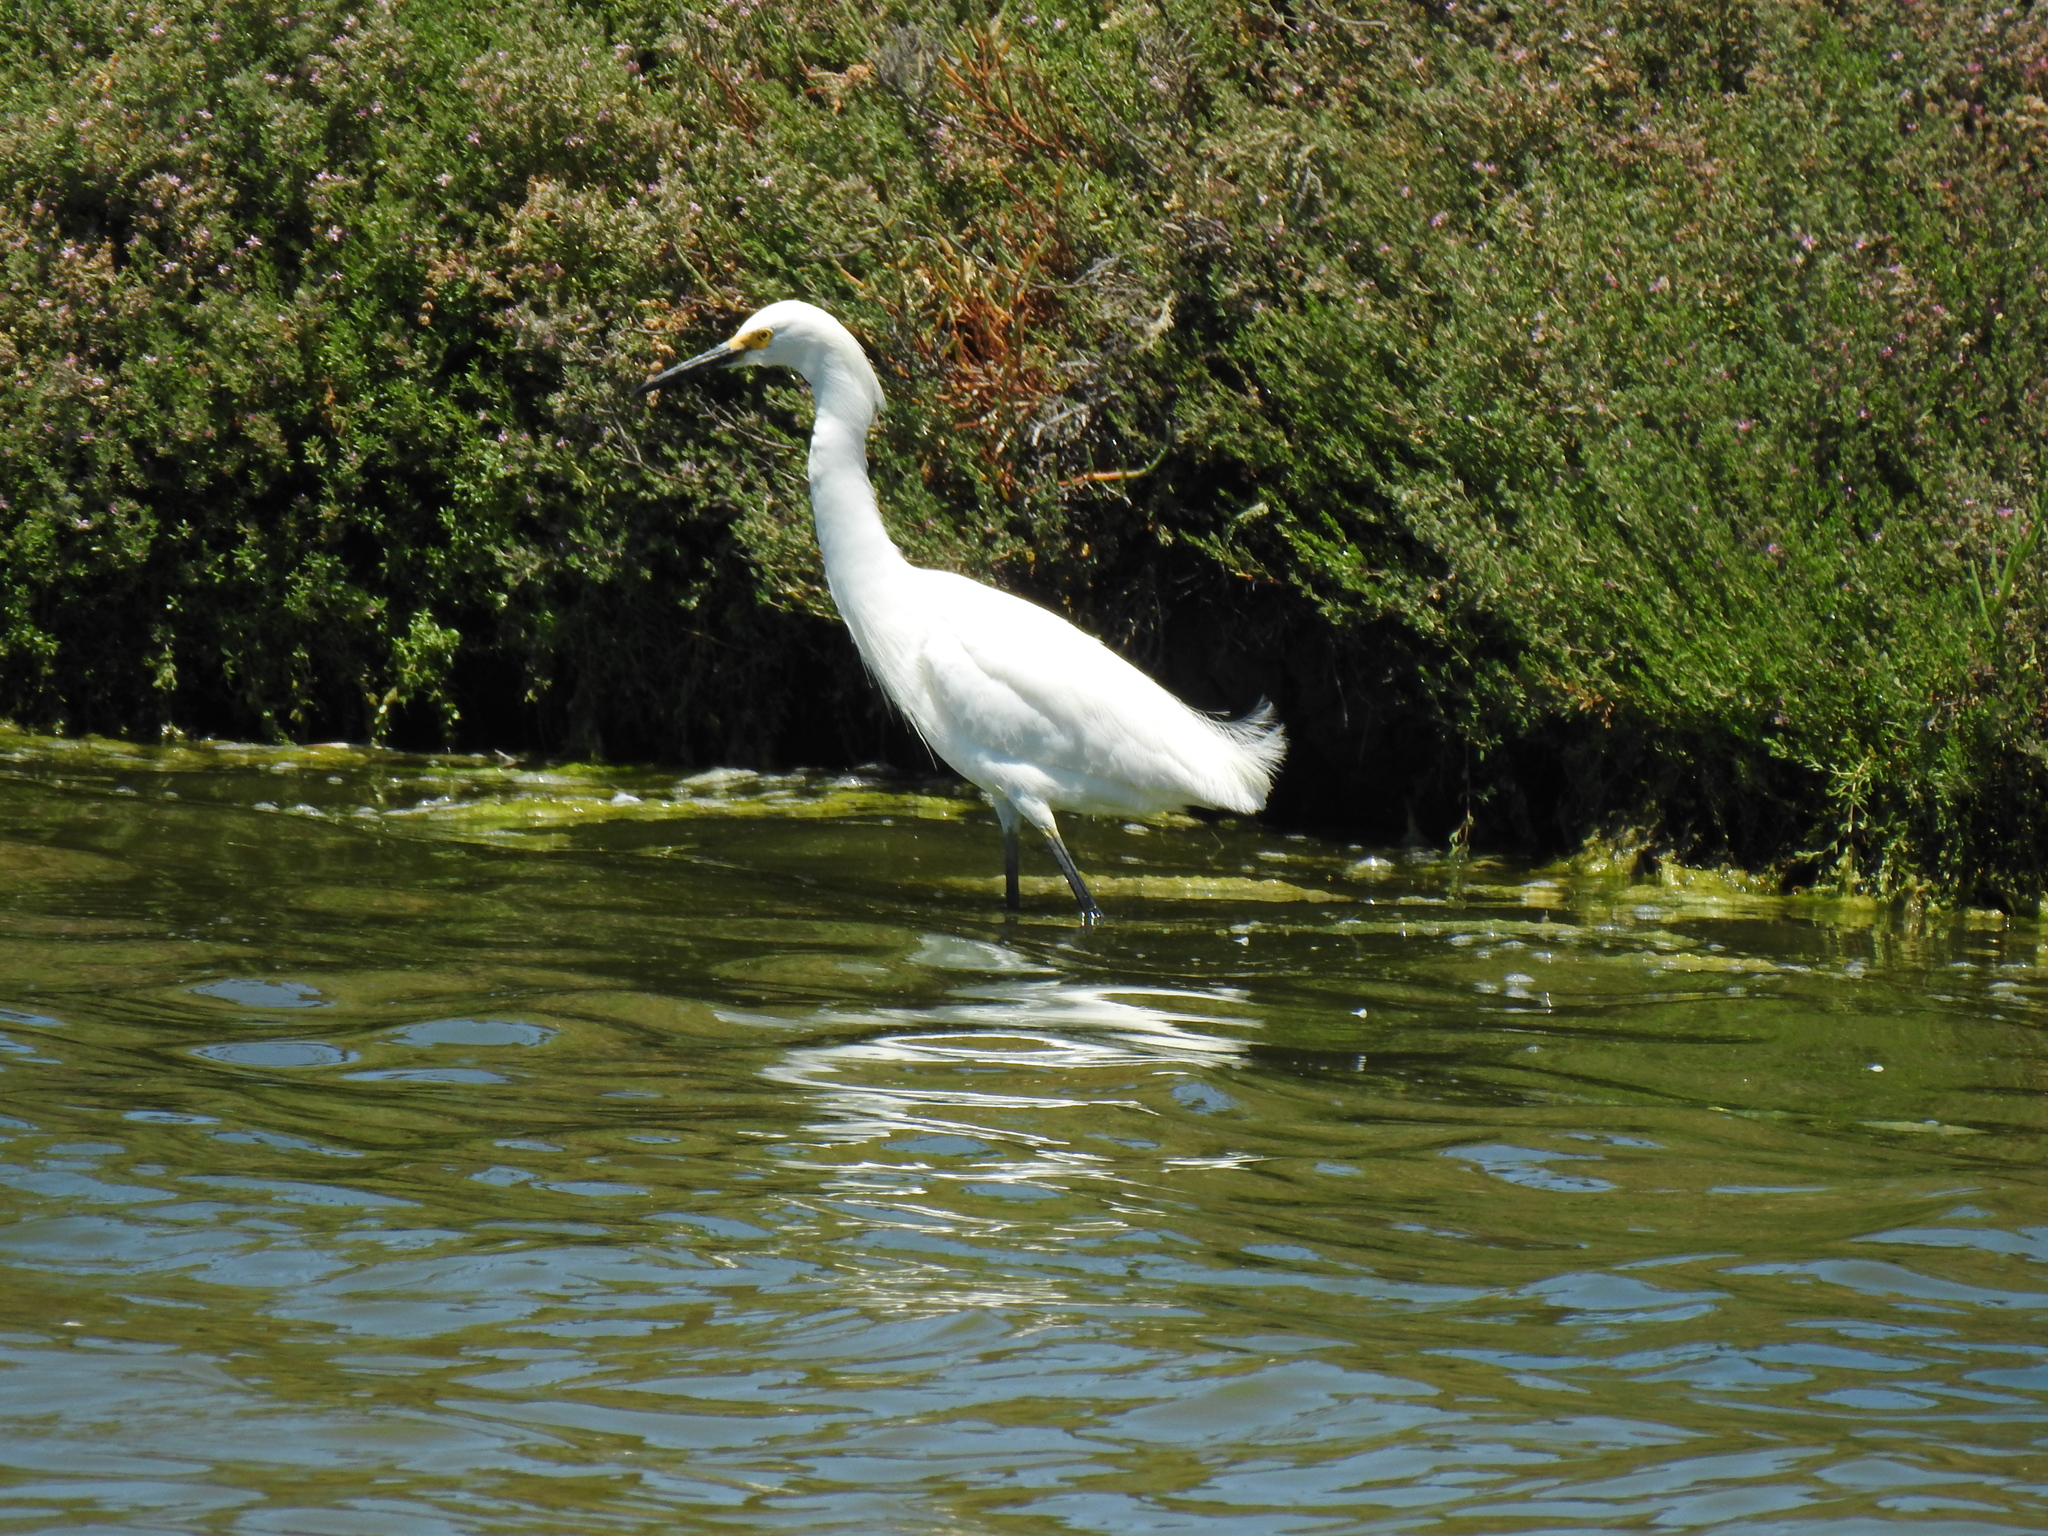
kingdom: Animalia
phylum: Chordata
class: Aves
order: Pelecaniformes
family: Ardeidae
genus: Egretta
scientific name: Egretta thula
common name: Snowy egret
